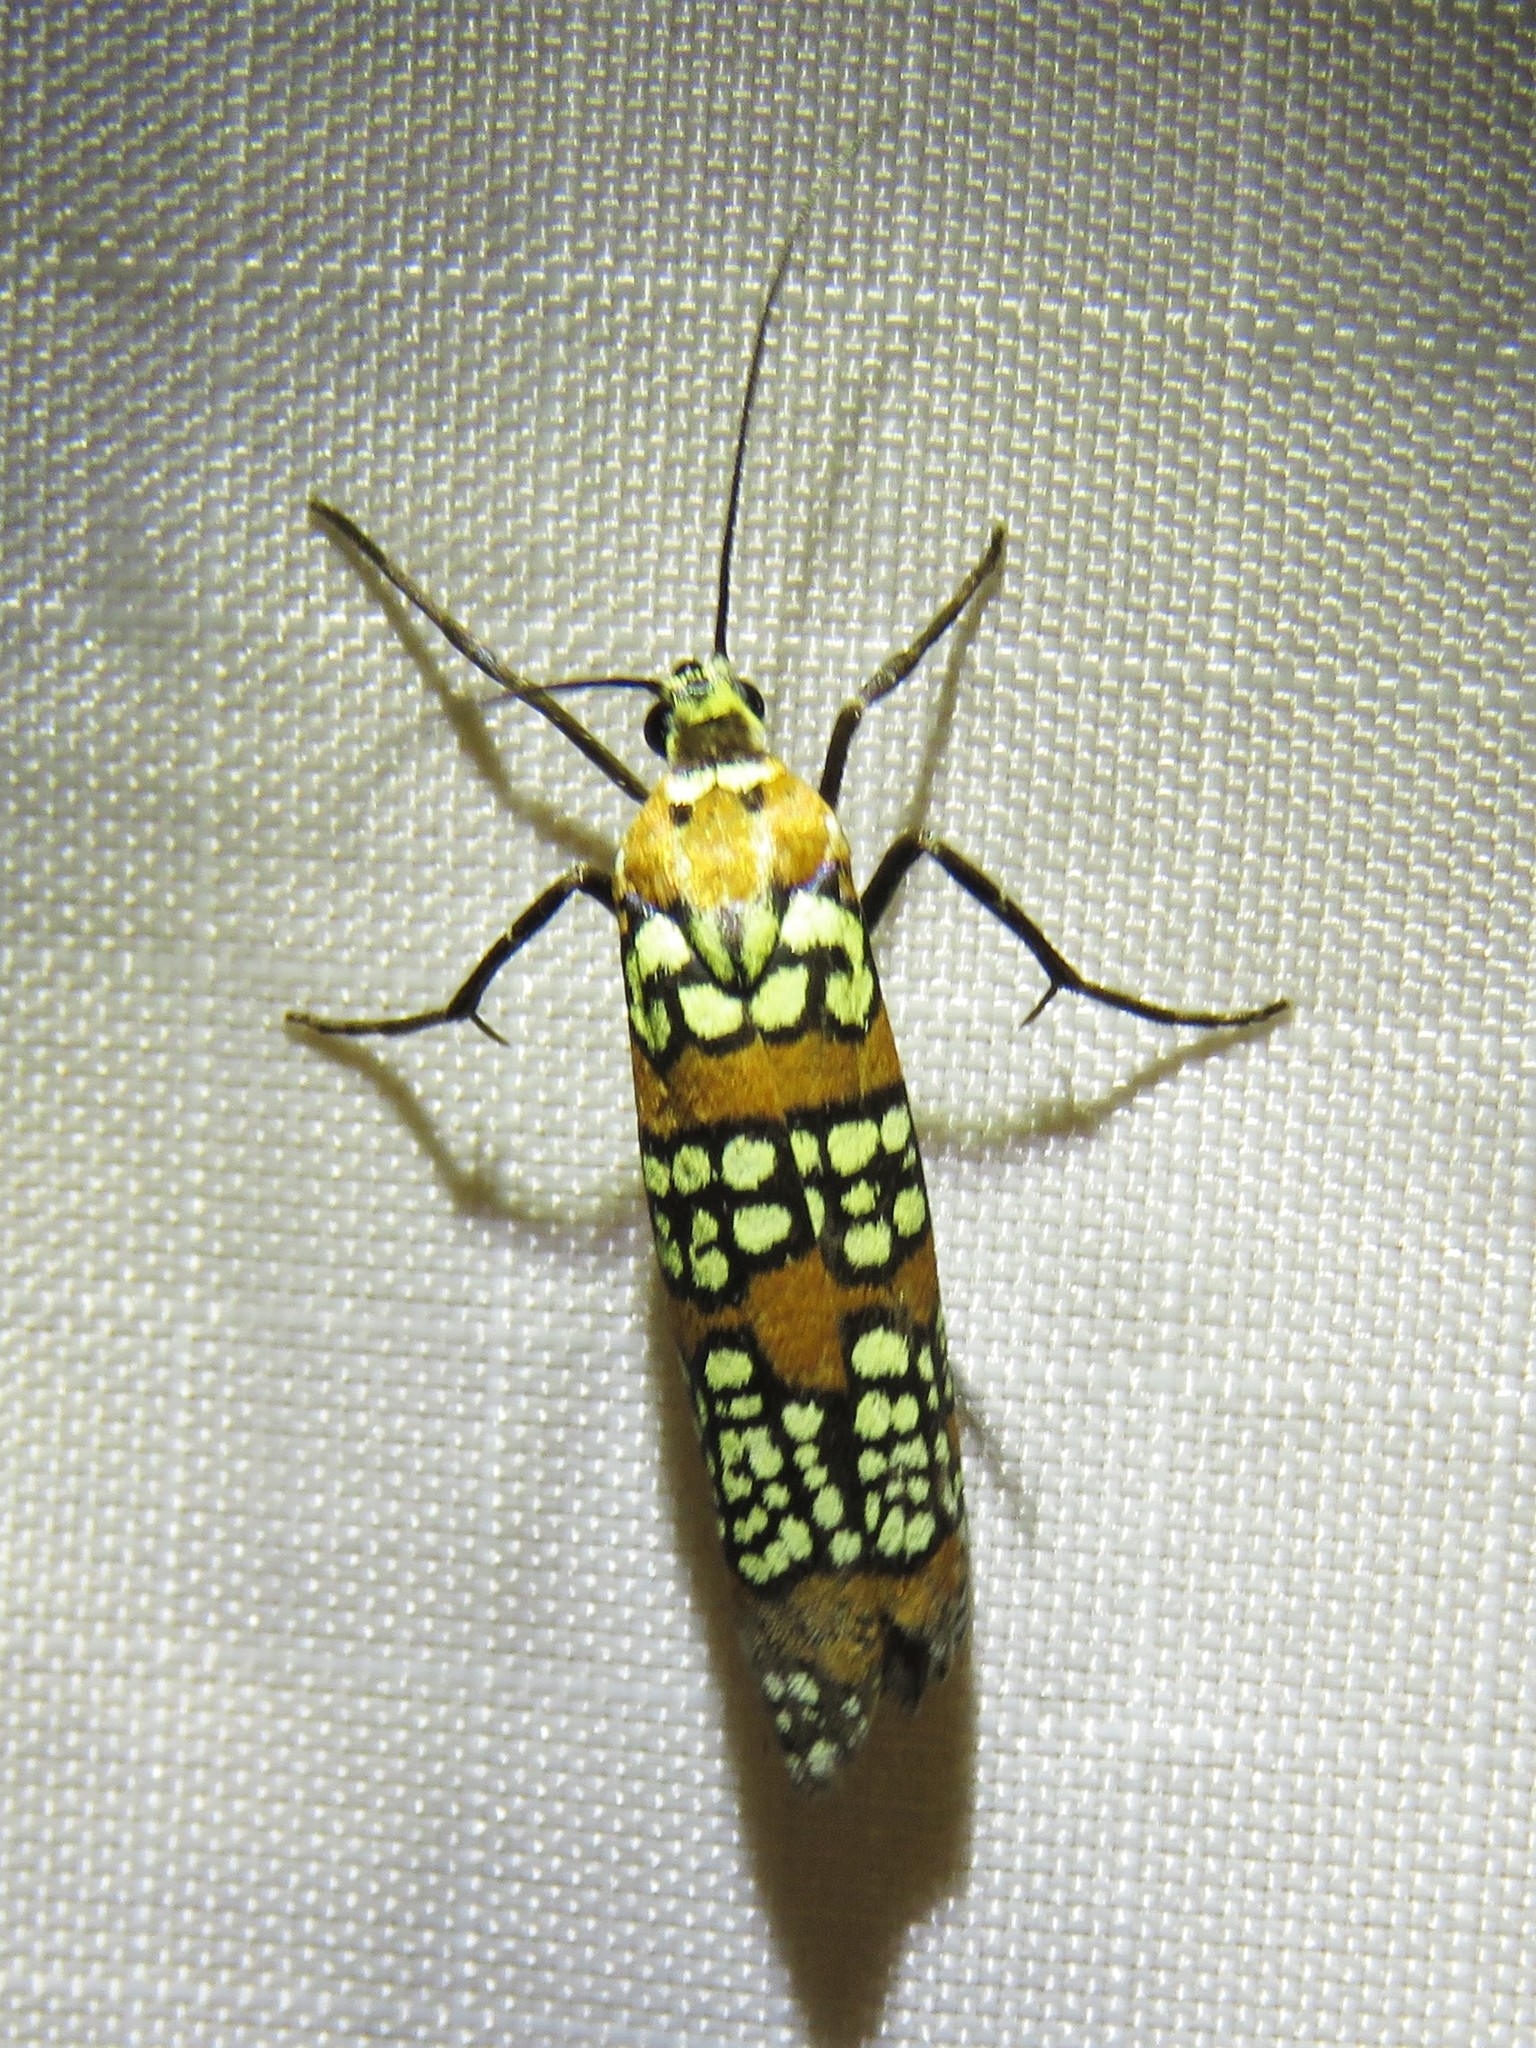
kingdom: Animalia
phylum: Arthropoda
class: Insecta
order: Lepidoptera
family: Attevidae
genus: Atteva
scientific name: Atteva punctella
